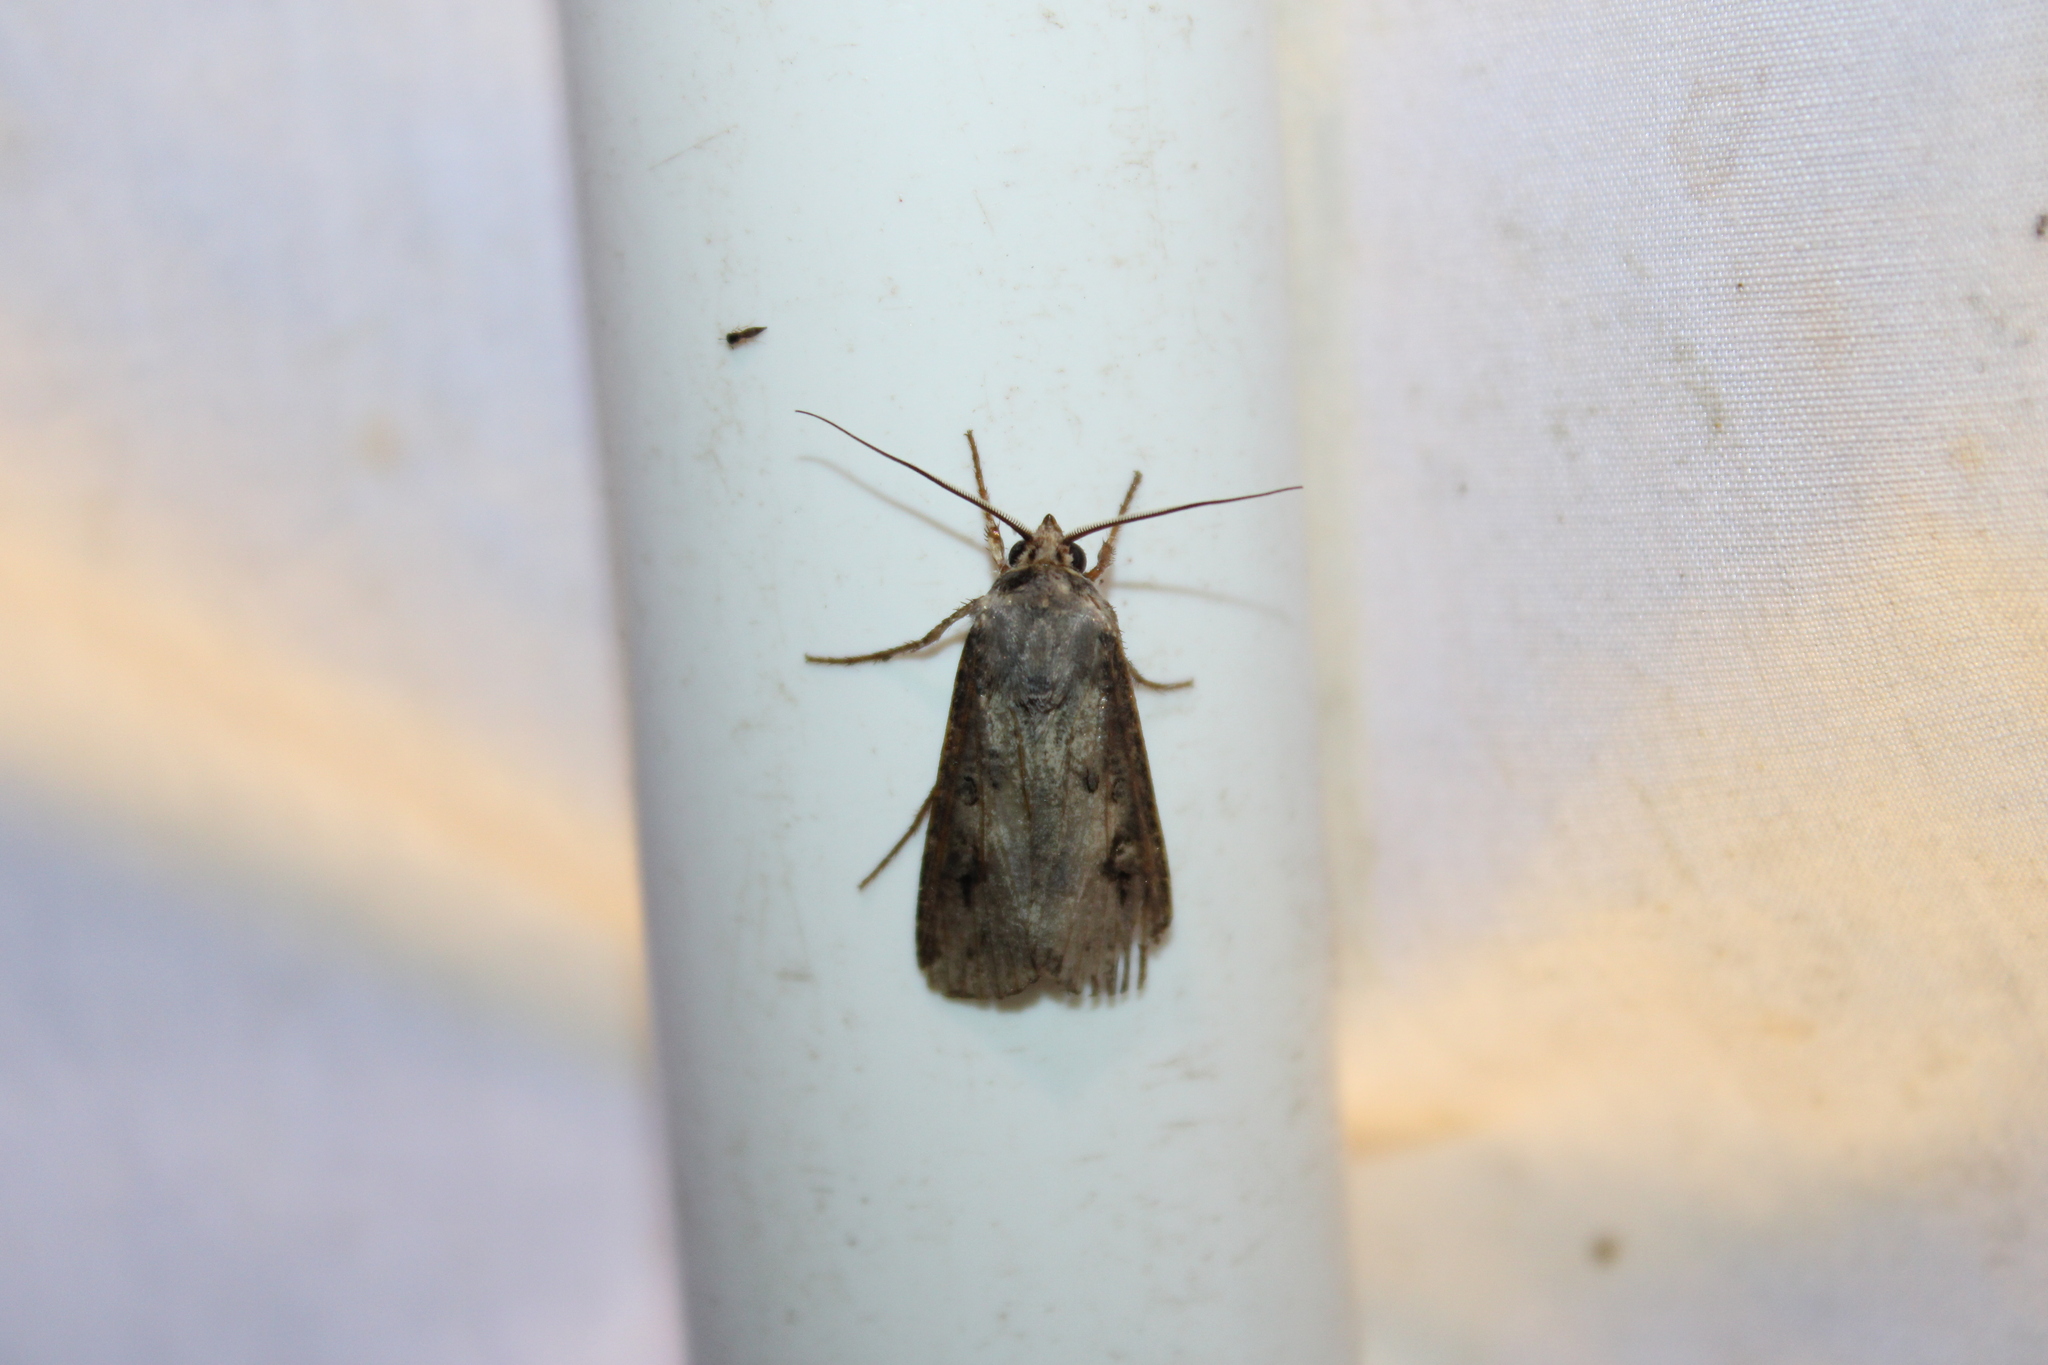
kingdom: Animalia
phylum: Arthropoda
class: Insecta
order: Lepidoptera
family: Noctuidae
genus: Agrotis
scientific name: Agrotis ipsilon
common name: Dark sword-grass
